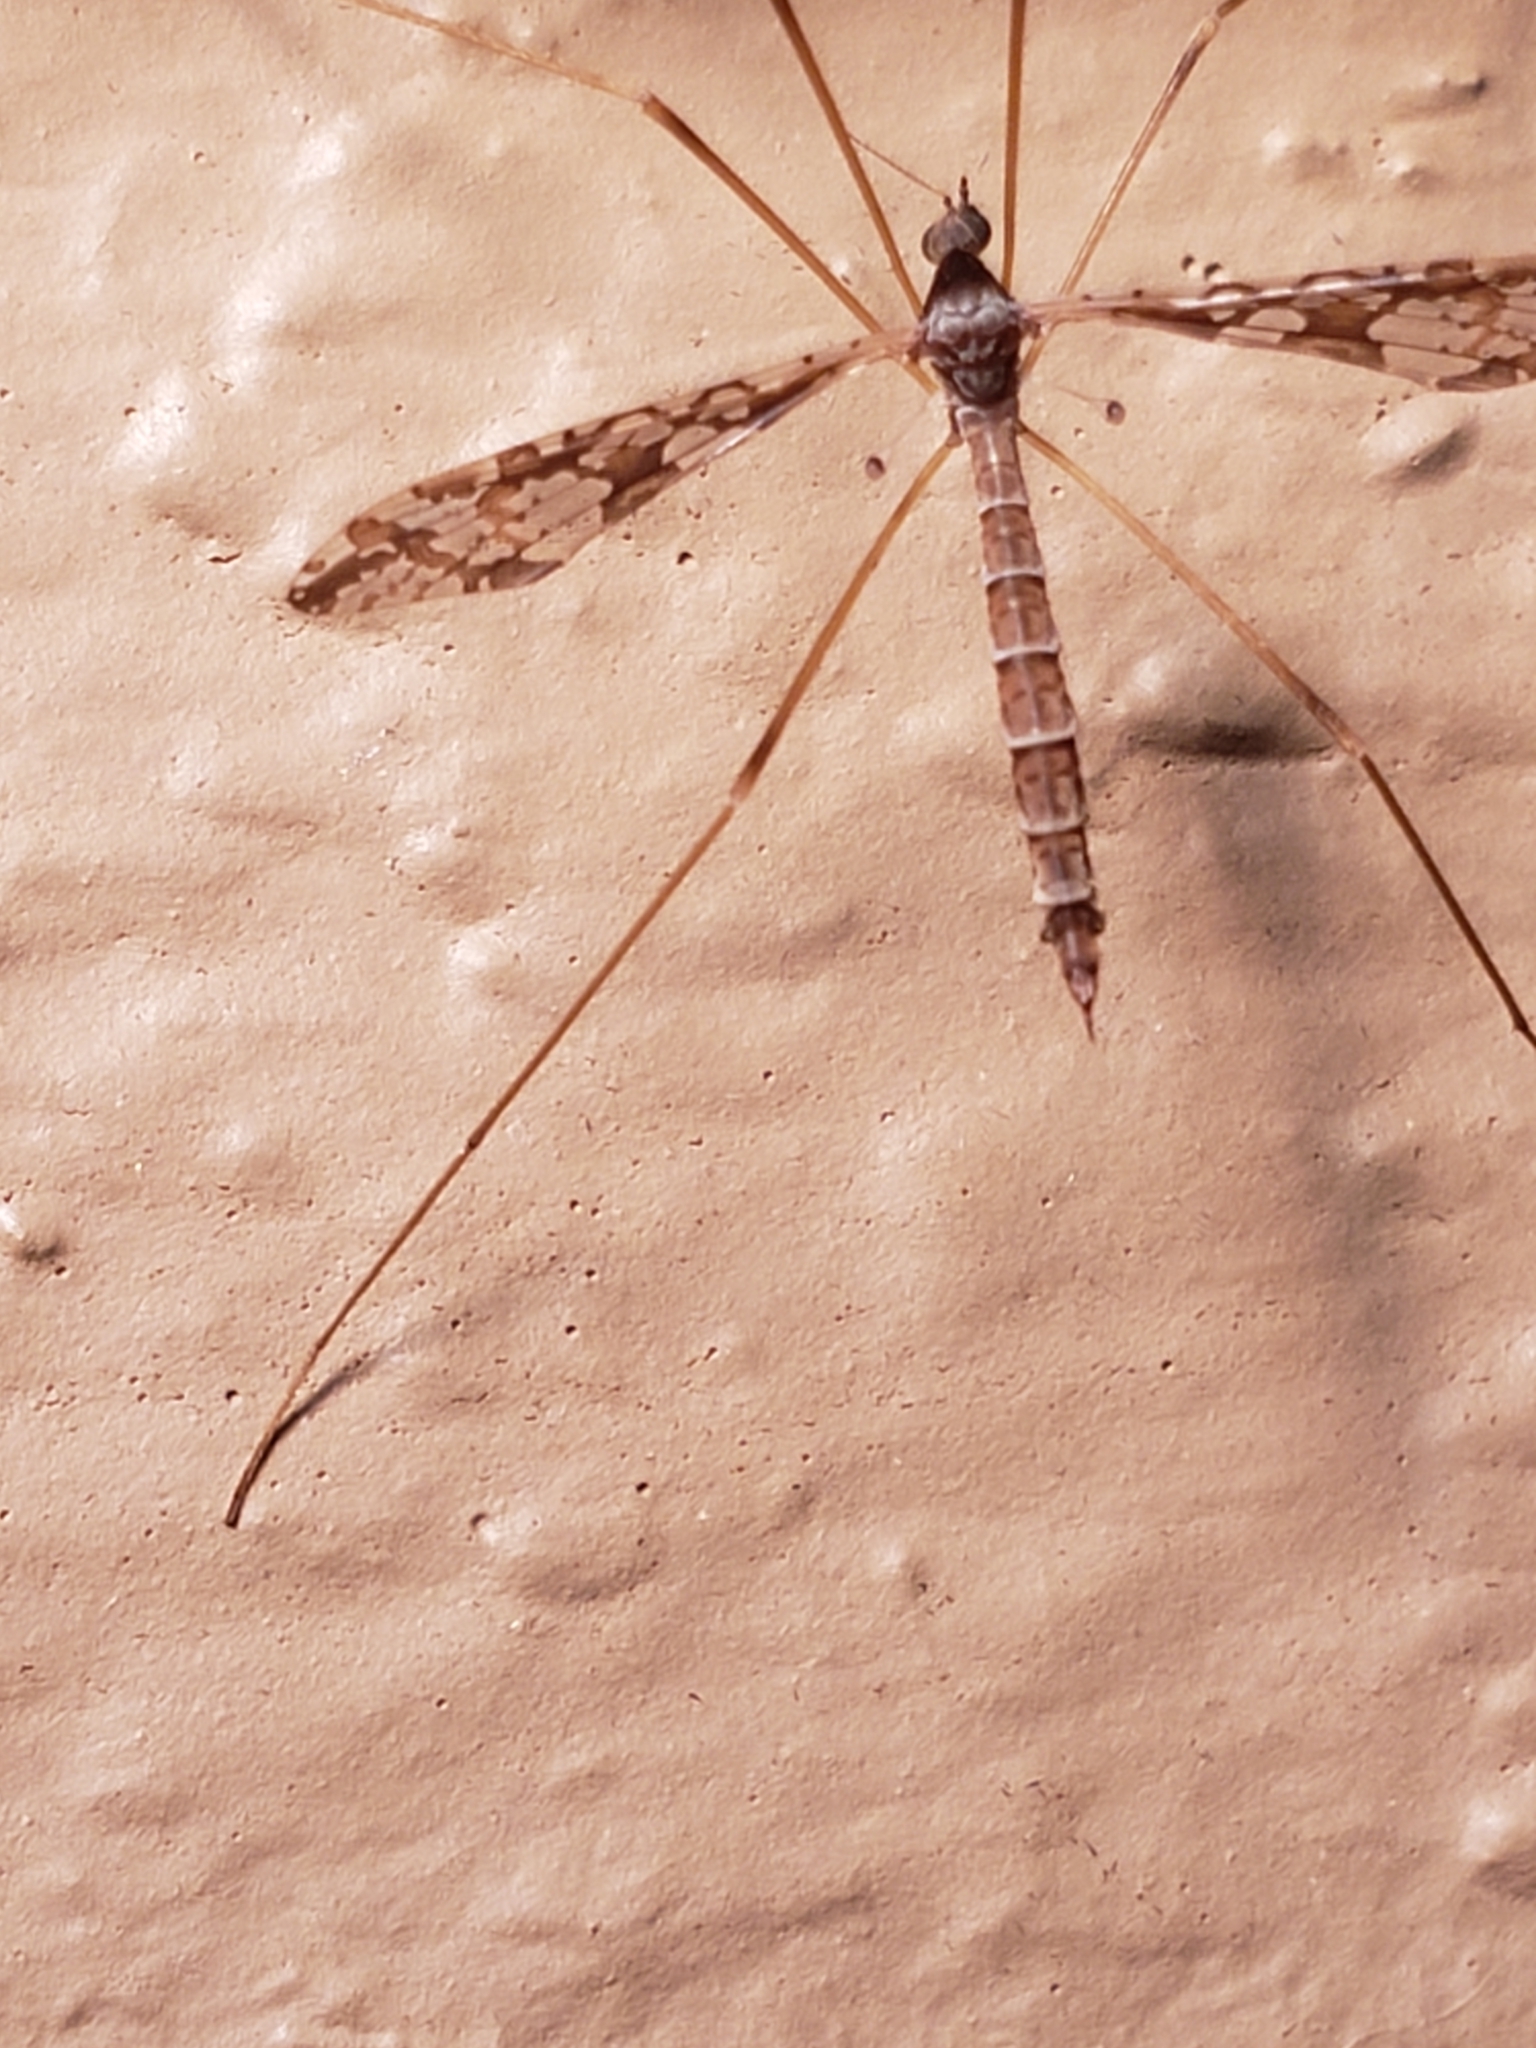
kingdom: Animalia
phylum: Arthropoda
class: Insecta
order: Diptera
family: Limoniidae
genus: Epiphragma
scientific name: Epiphragma solatrix
